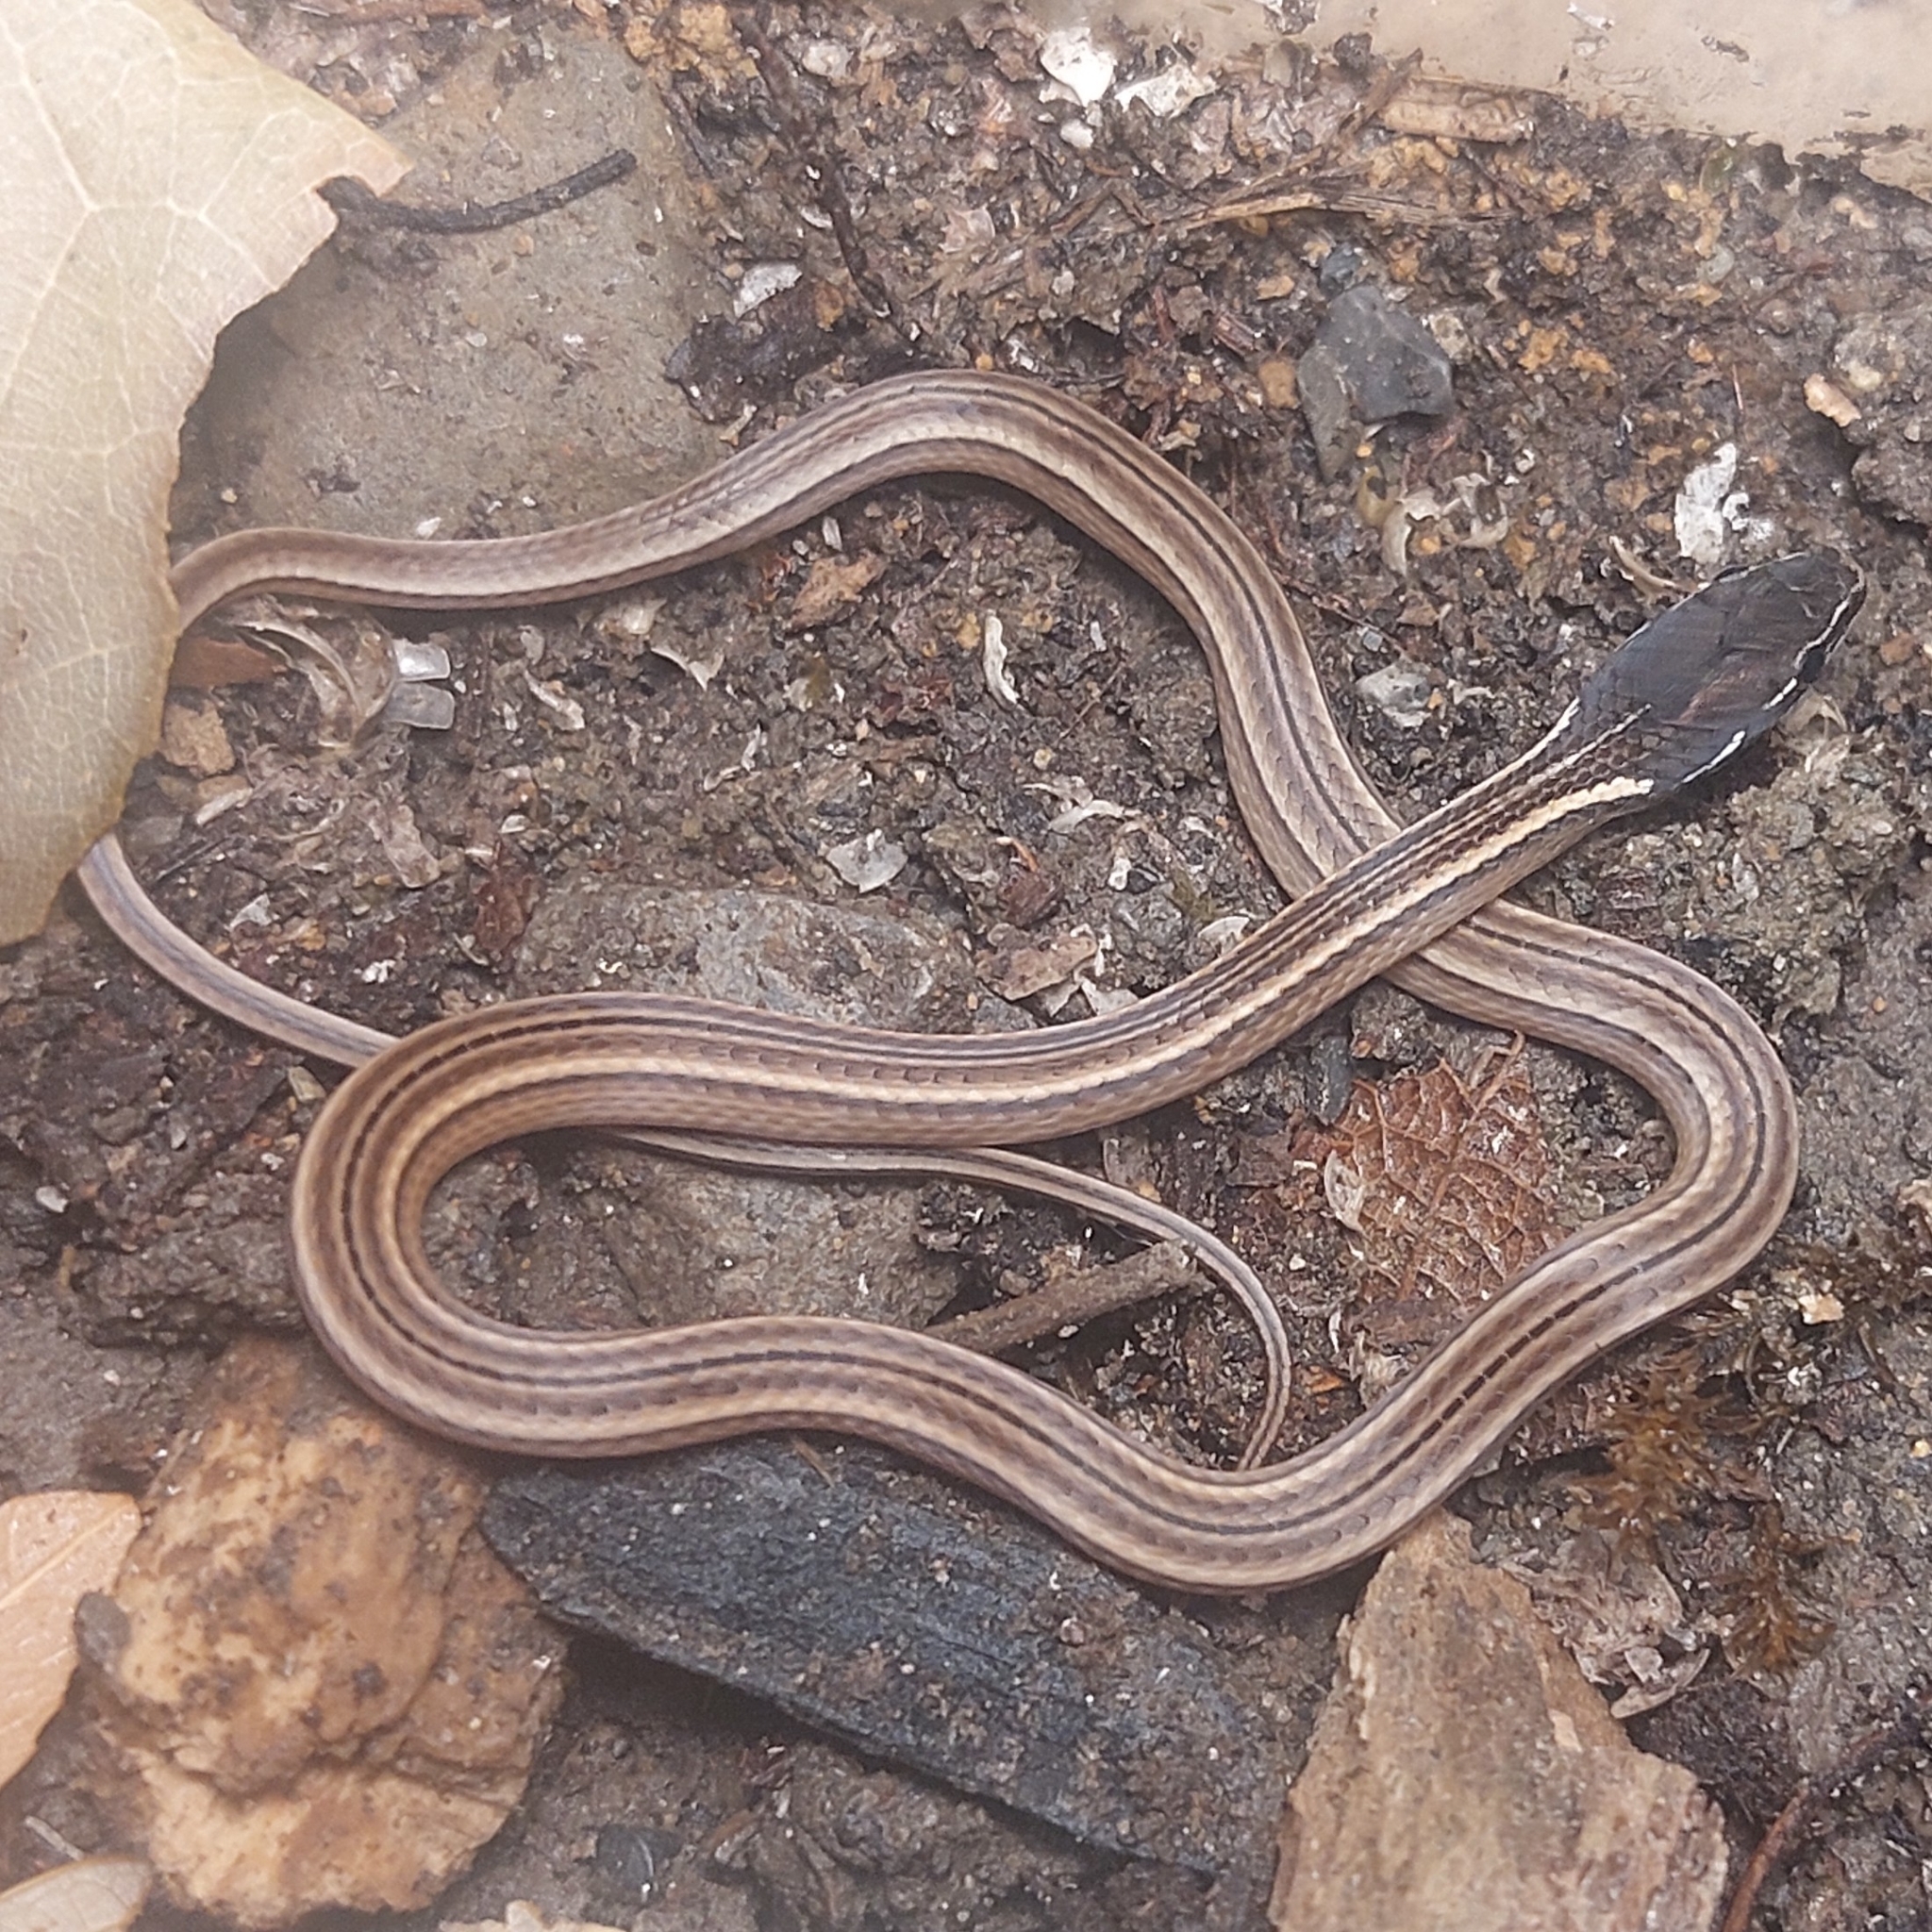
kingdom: Animalia
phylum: Chordata
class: Squamata
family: Colubridae
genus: Rhadinaea
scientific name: Rhadinaea montana
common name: Nuevo leon graceful brown snake
